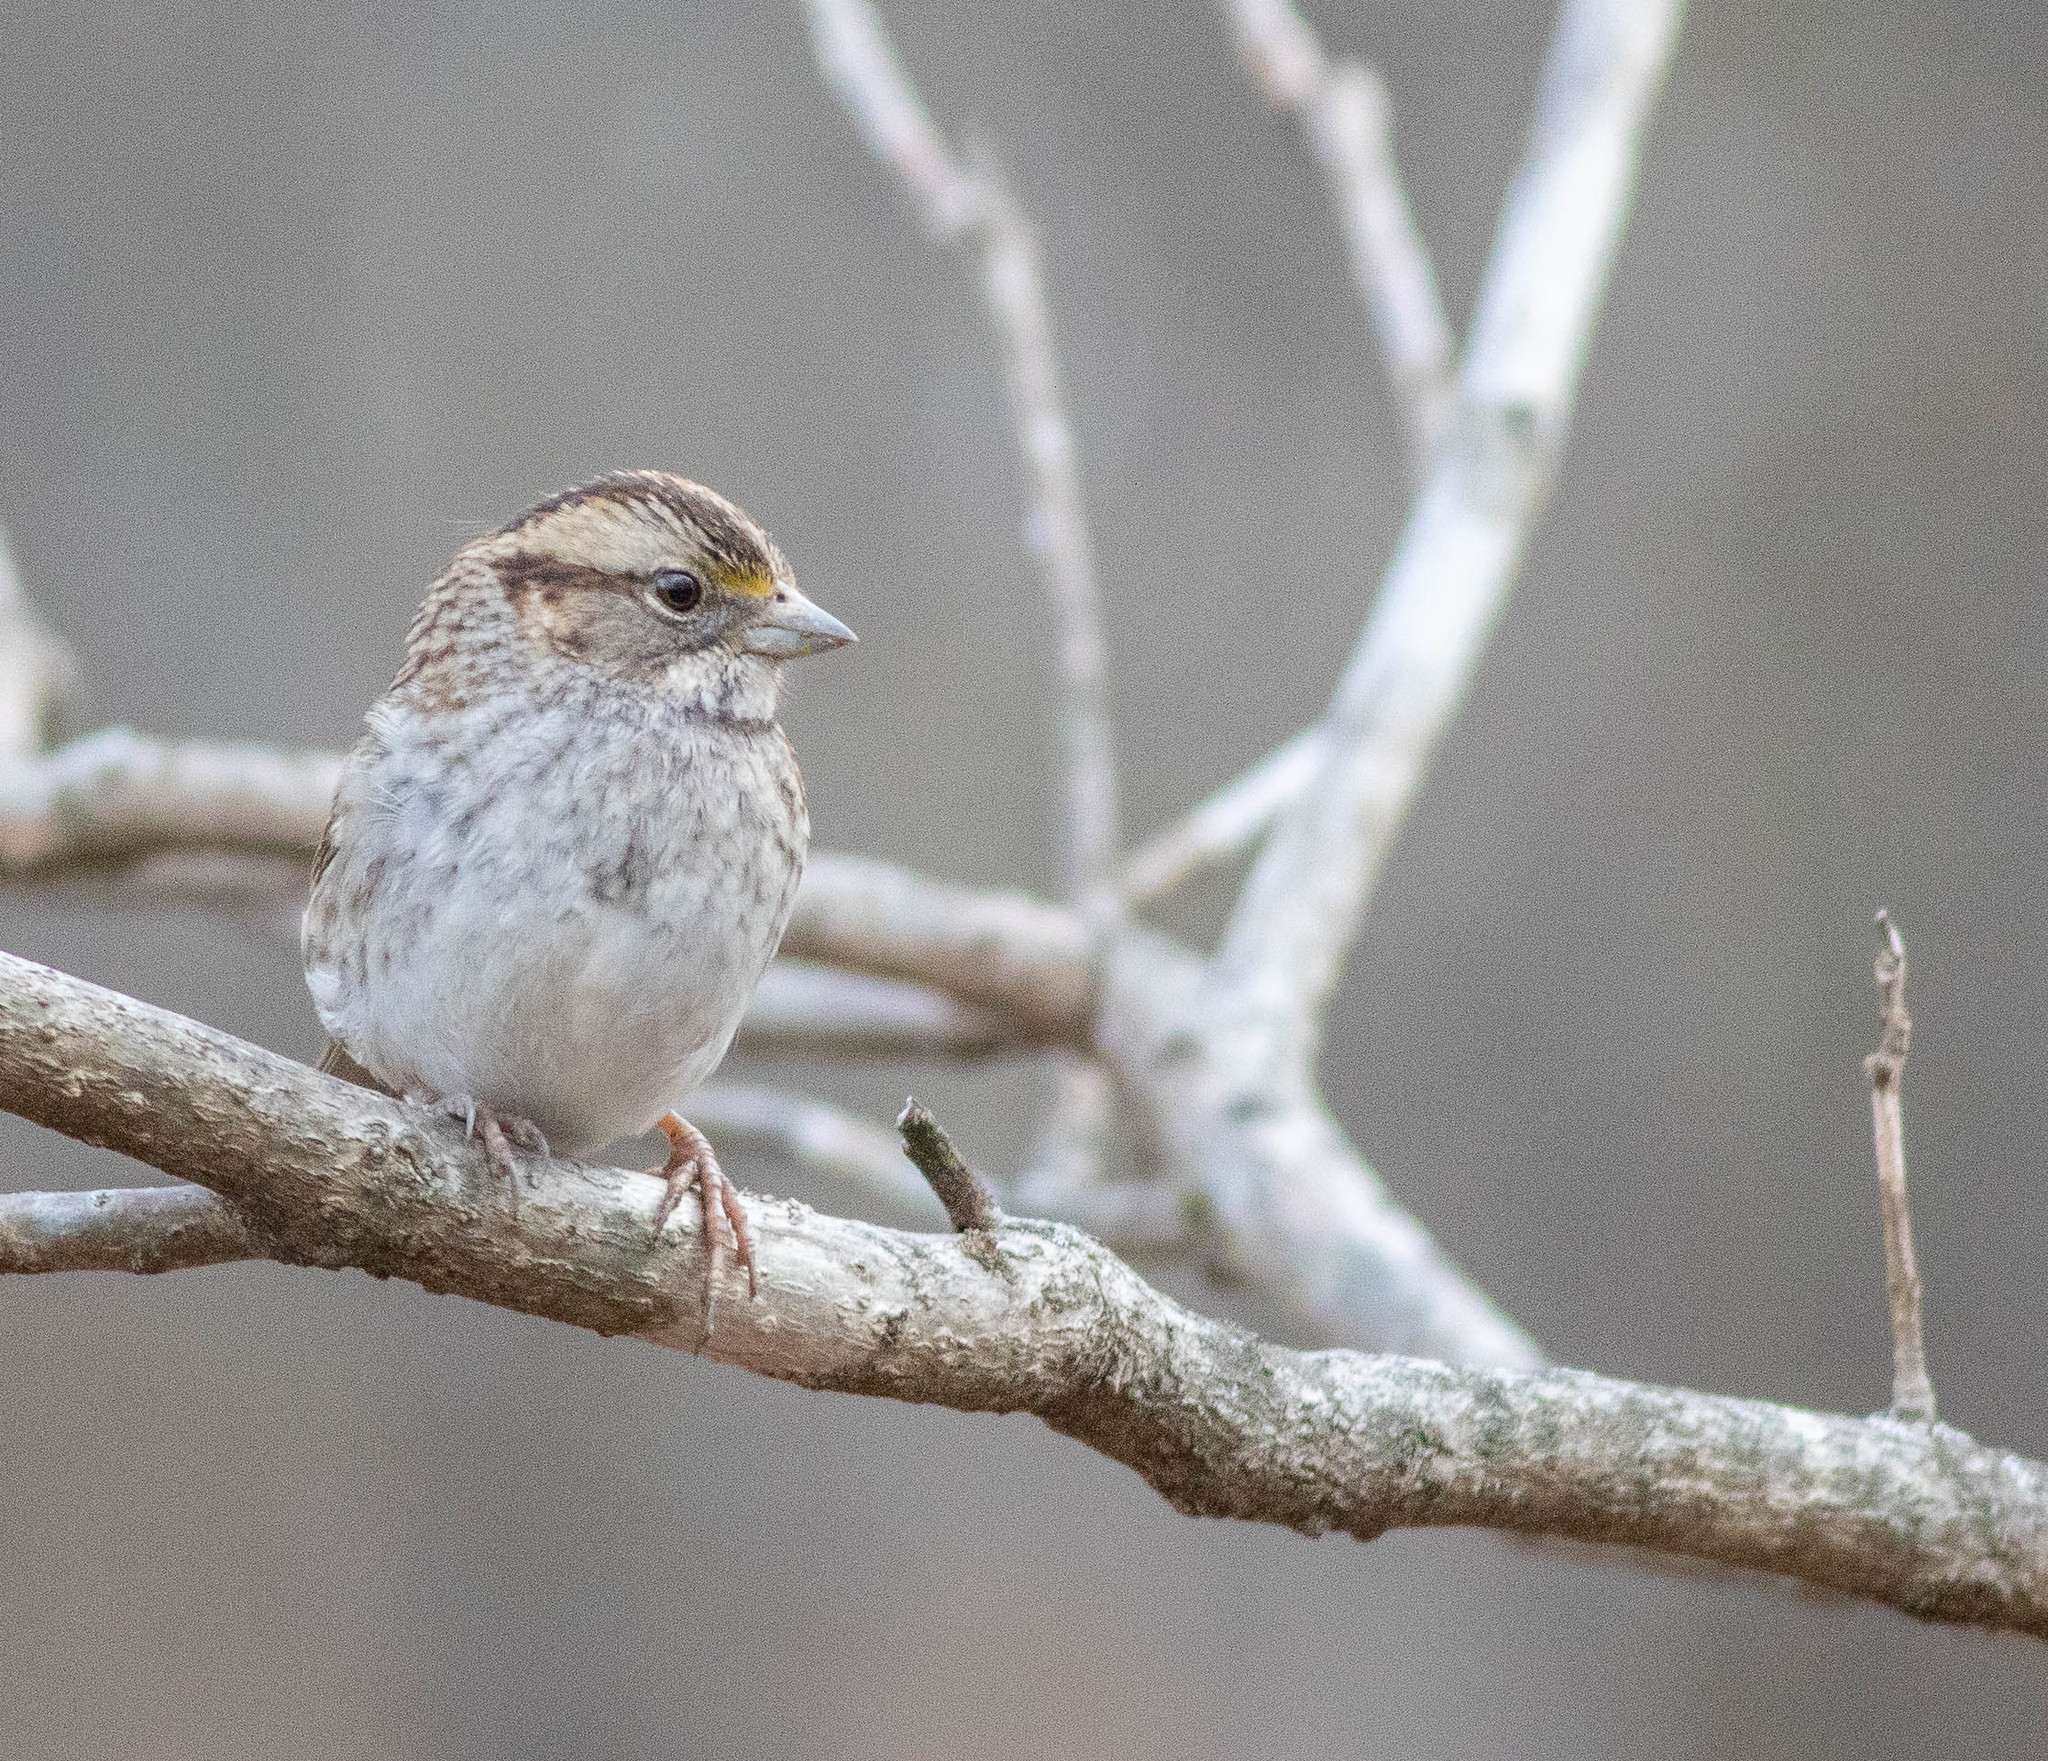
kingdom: Animalia
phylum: Chordata
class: Aves
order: Passeriformes
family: Passerellidae
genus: Zonotrichia
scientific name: Zonotrichia albicollis
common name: White-throated sparrow
